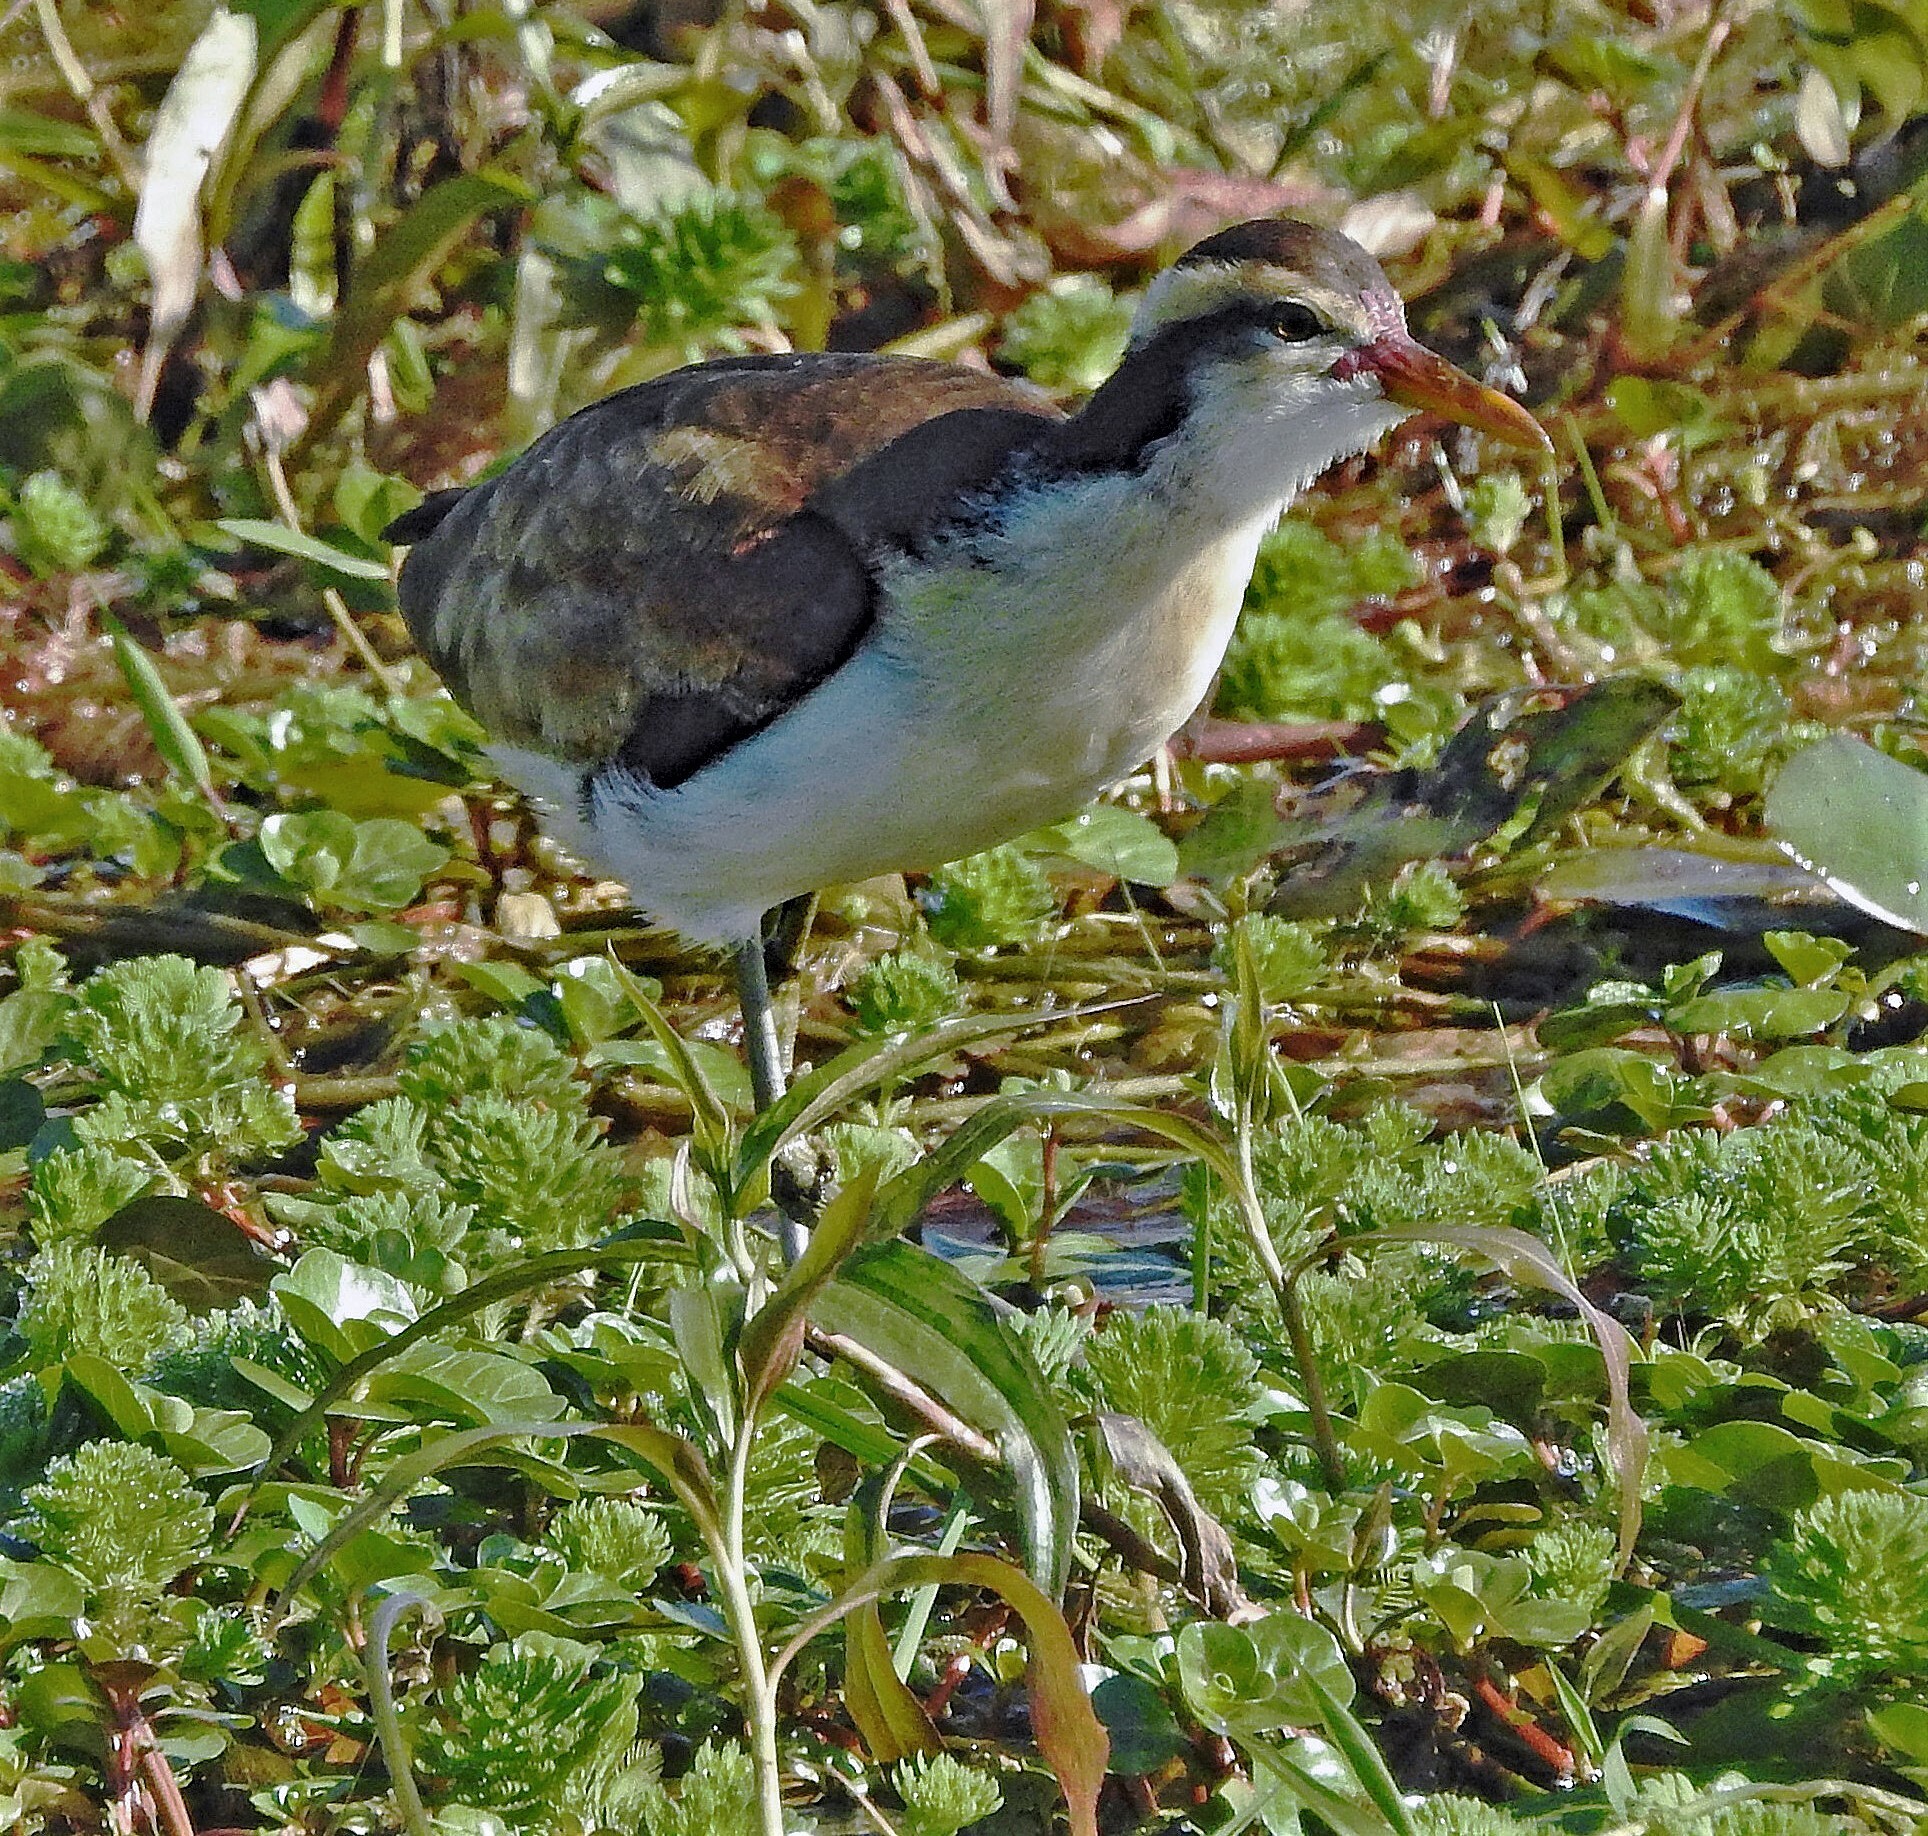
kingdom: Animalia
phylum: Chordata
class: Aves
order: Charadriiformes
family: Jacanidae
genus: Jacana
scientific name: Jacana jacana
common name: Wattled jacana
